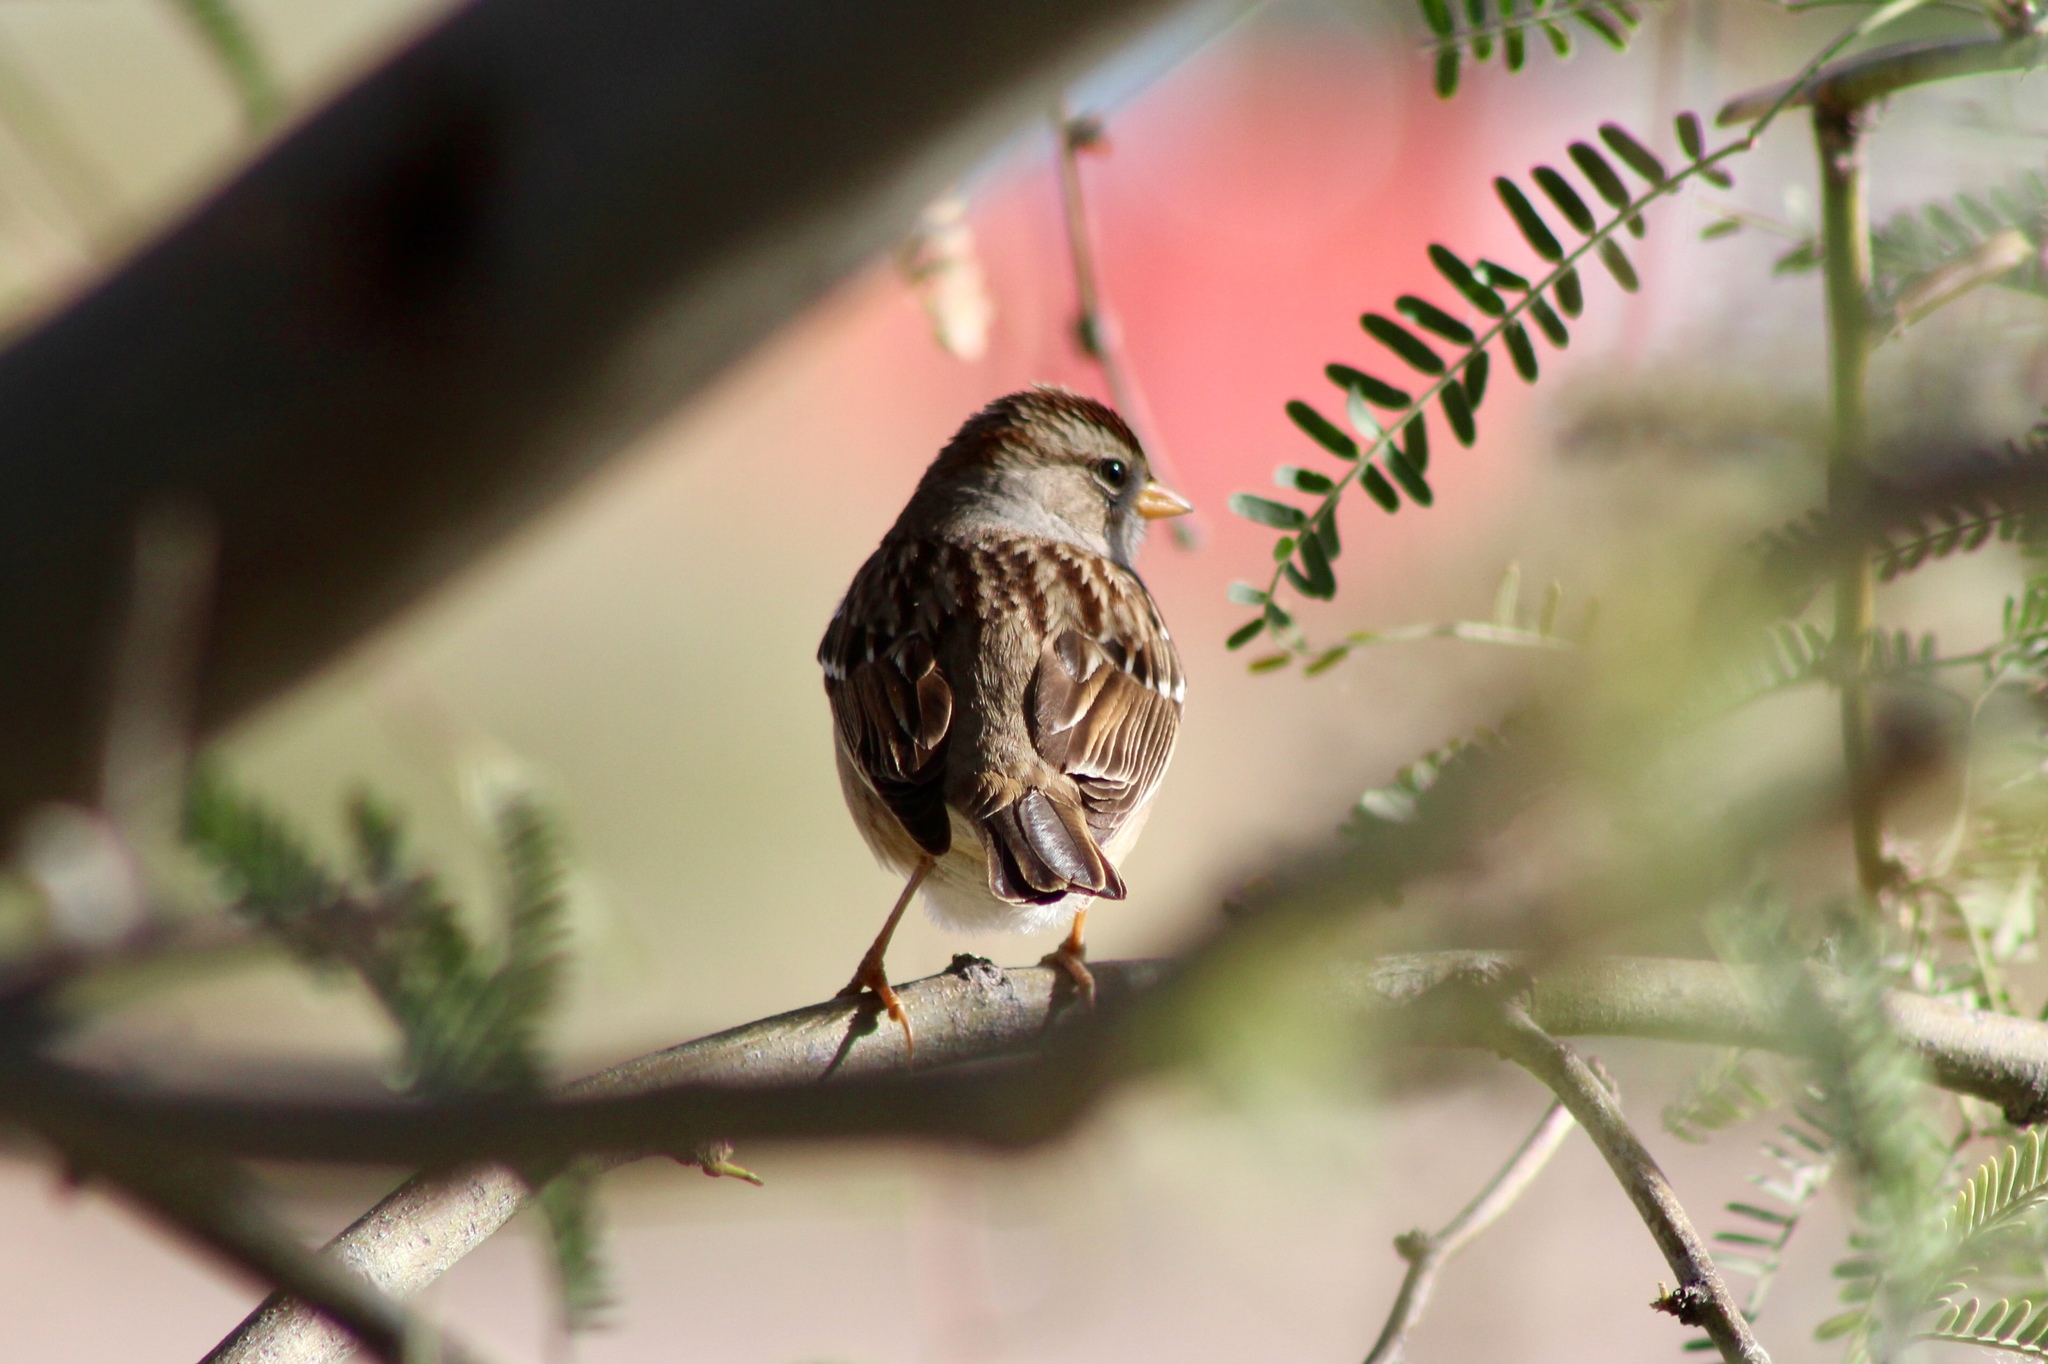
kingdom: Animalia
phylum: Chordata
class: Aves
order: Passeriformes
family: Passerellidae
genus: Zonotrichia
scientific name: Zonotrichia leucophrys
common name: White-crowned sparrow
